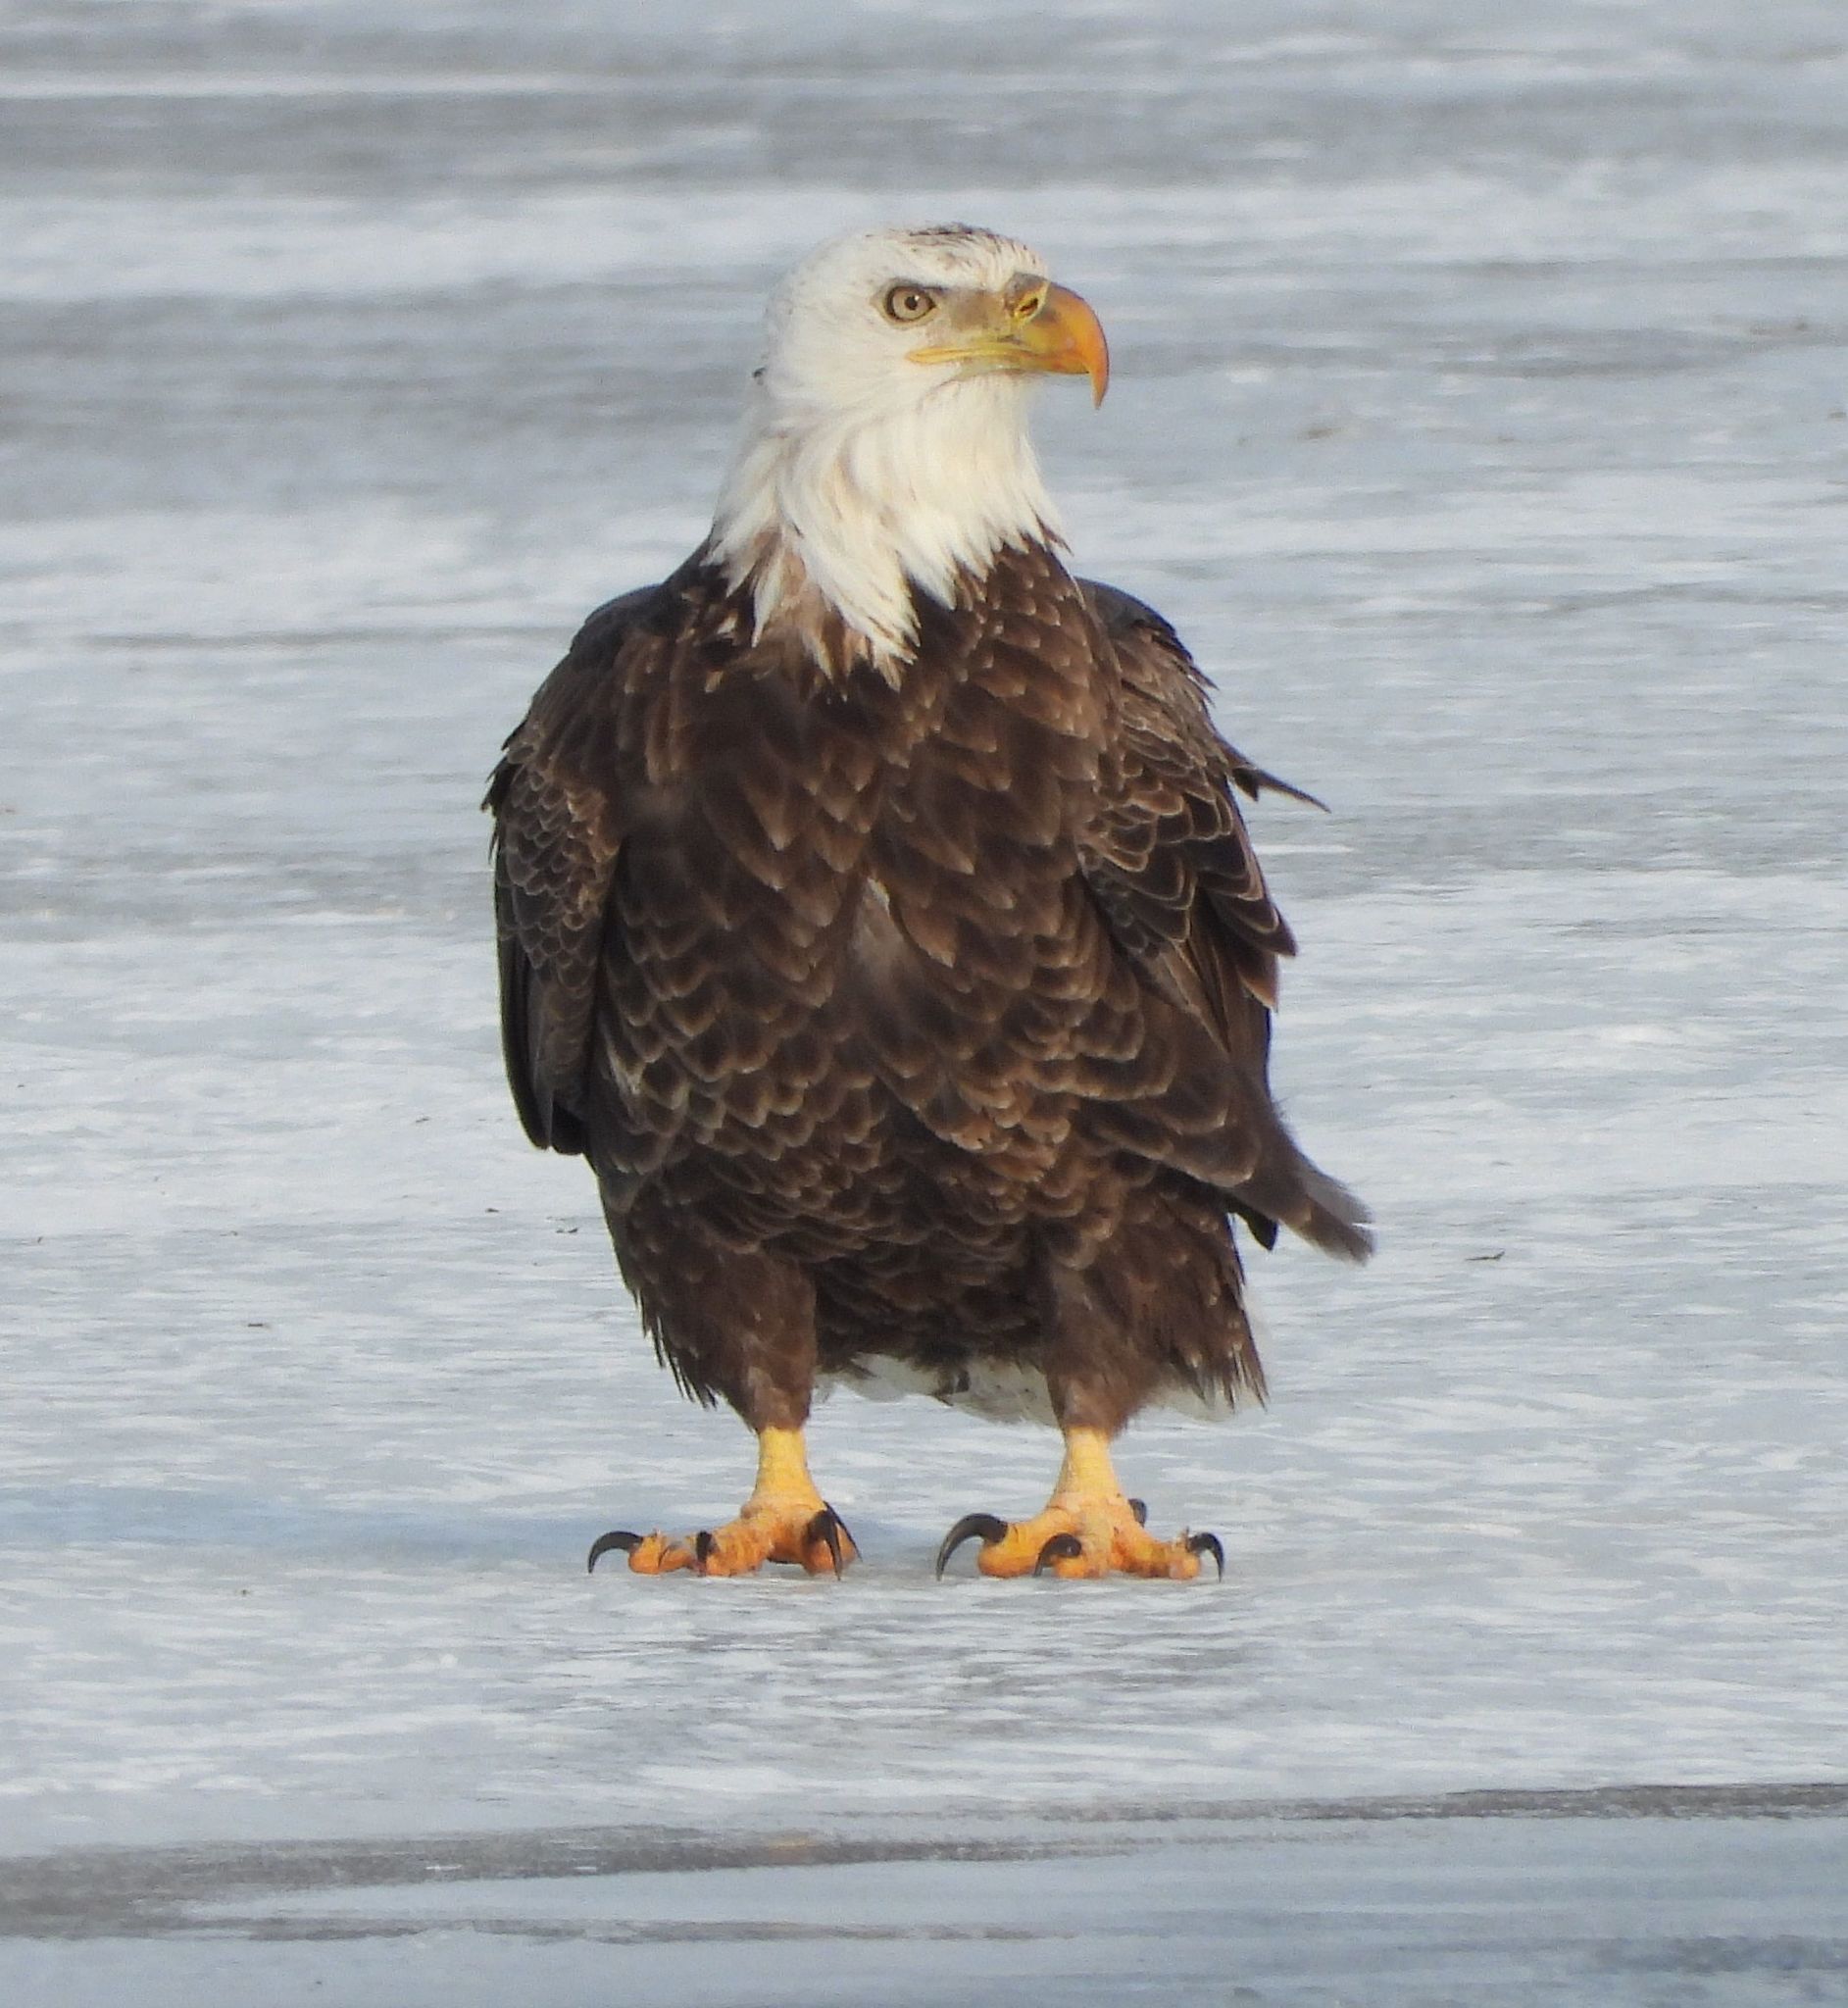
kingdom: Animalia
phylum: Chordata
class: Aves
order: Accipitriformes
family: Accipitridae
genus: Haliaeetus
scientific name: Haliaeetus leucocephalus
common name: Bald eagle
